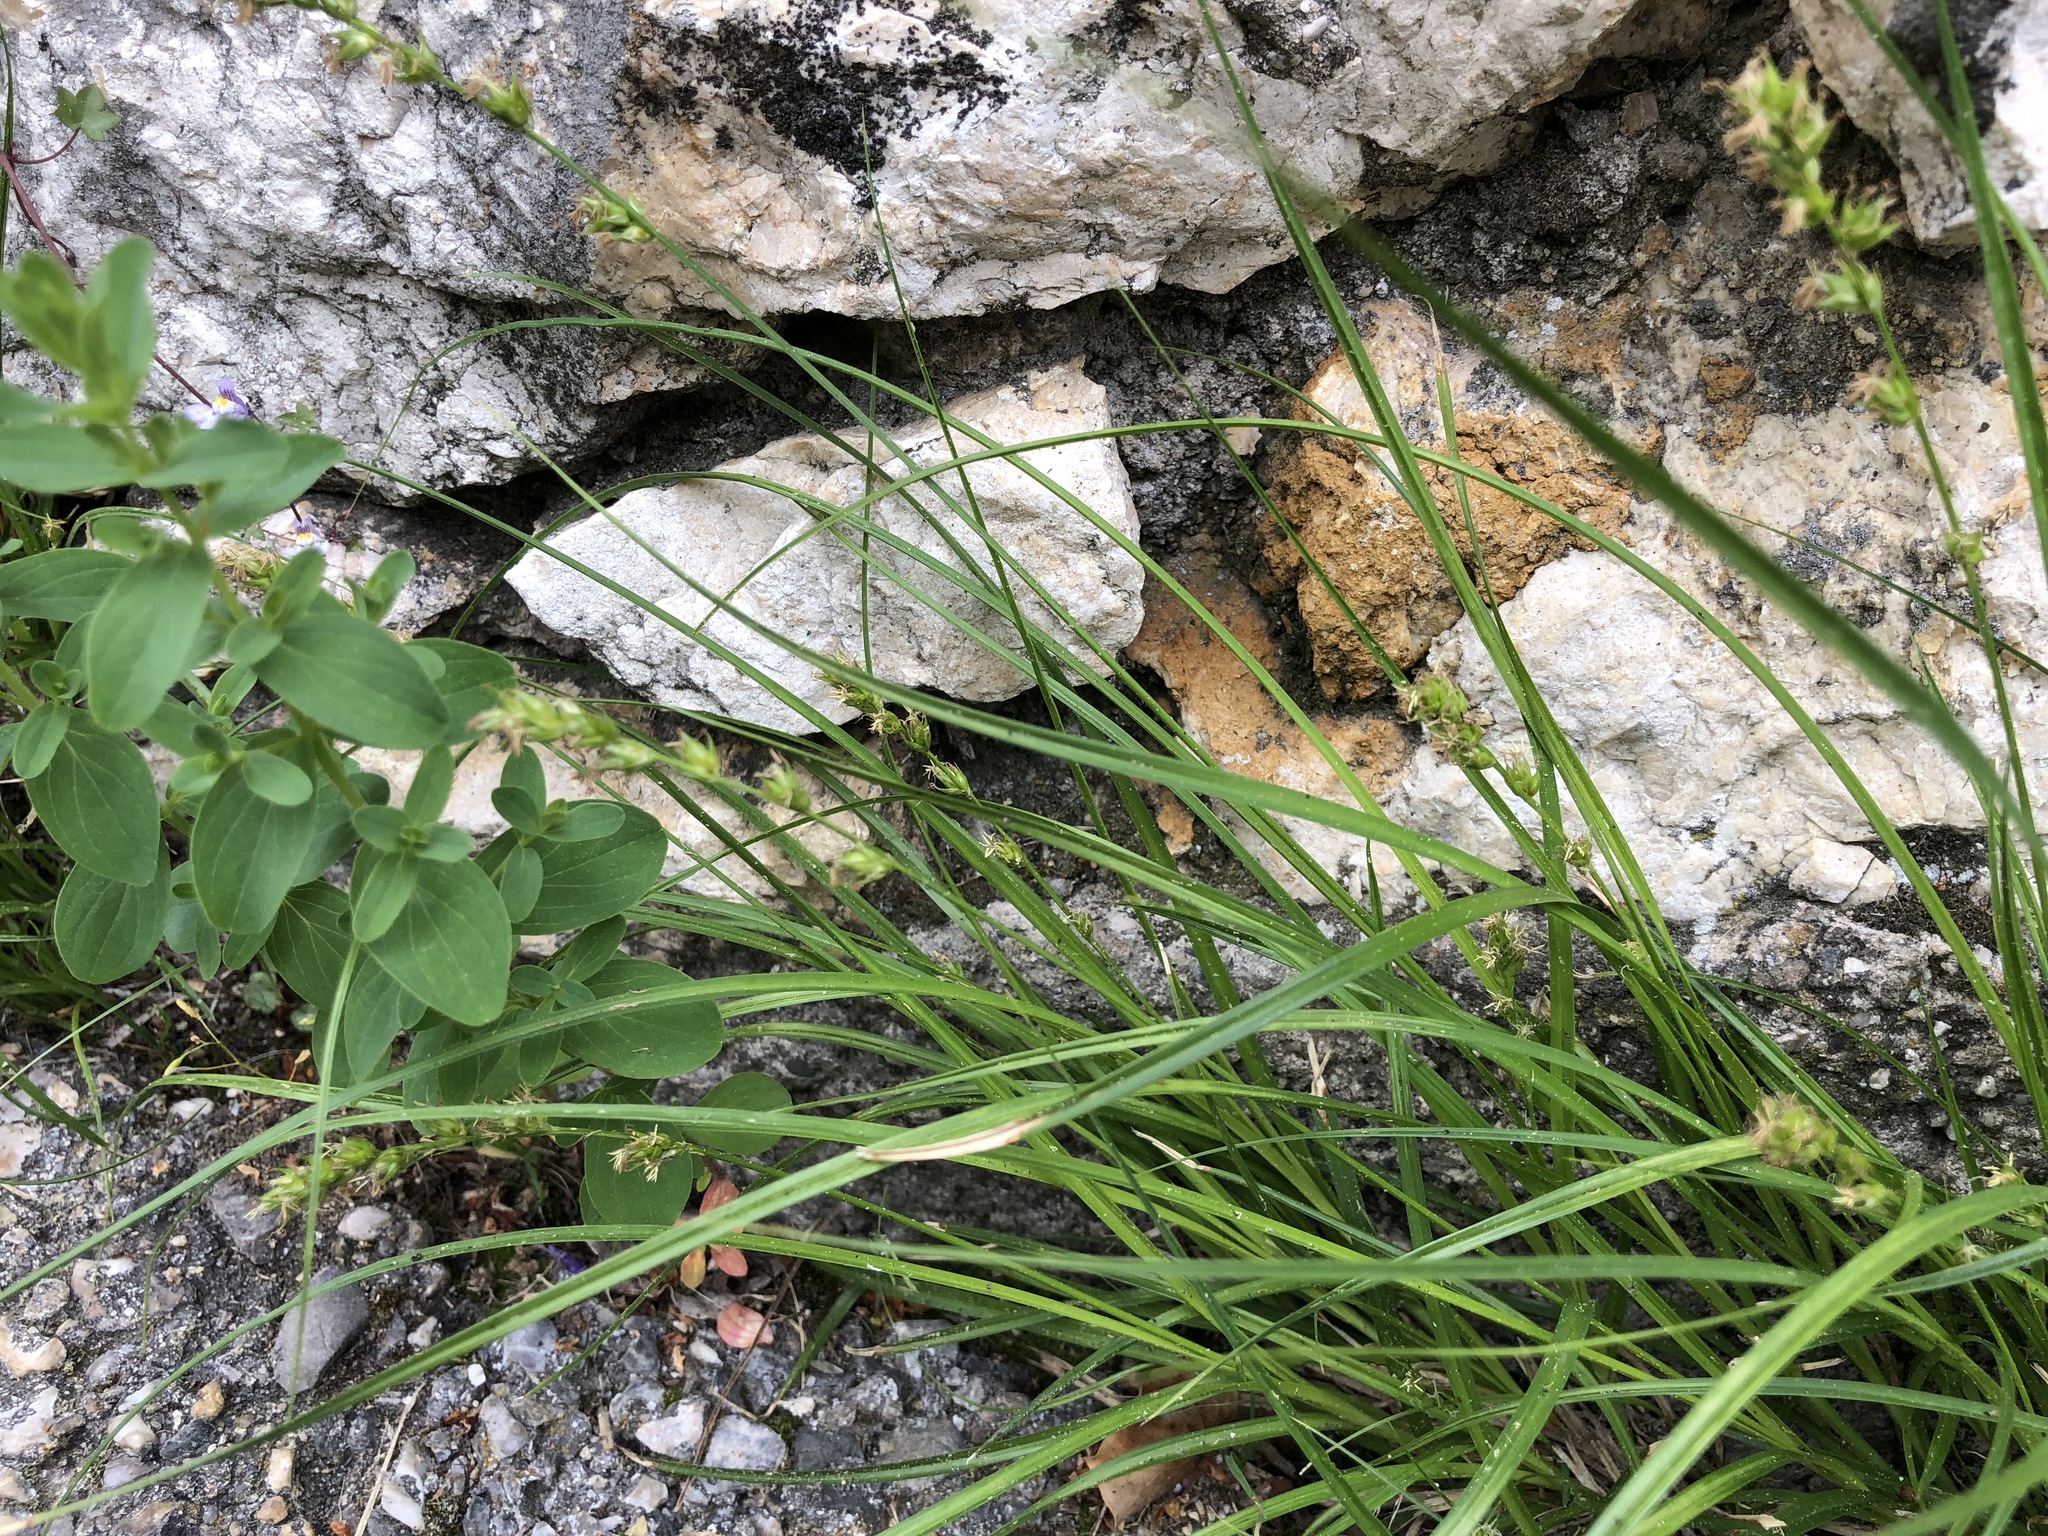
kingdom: Plantae
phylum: Tracheophyta
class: Liliopsida
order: Poales
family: Cyperaceae
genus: Carex
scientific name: Carex muricata
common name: Rough sedge
